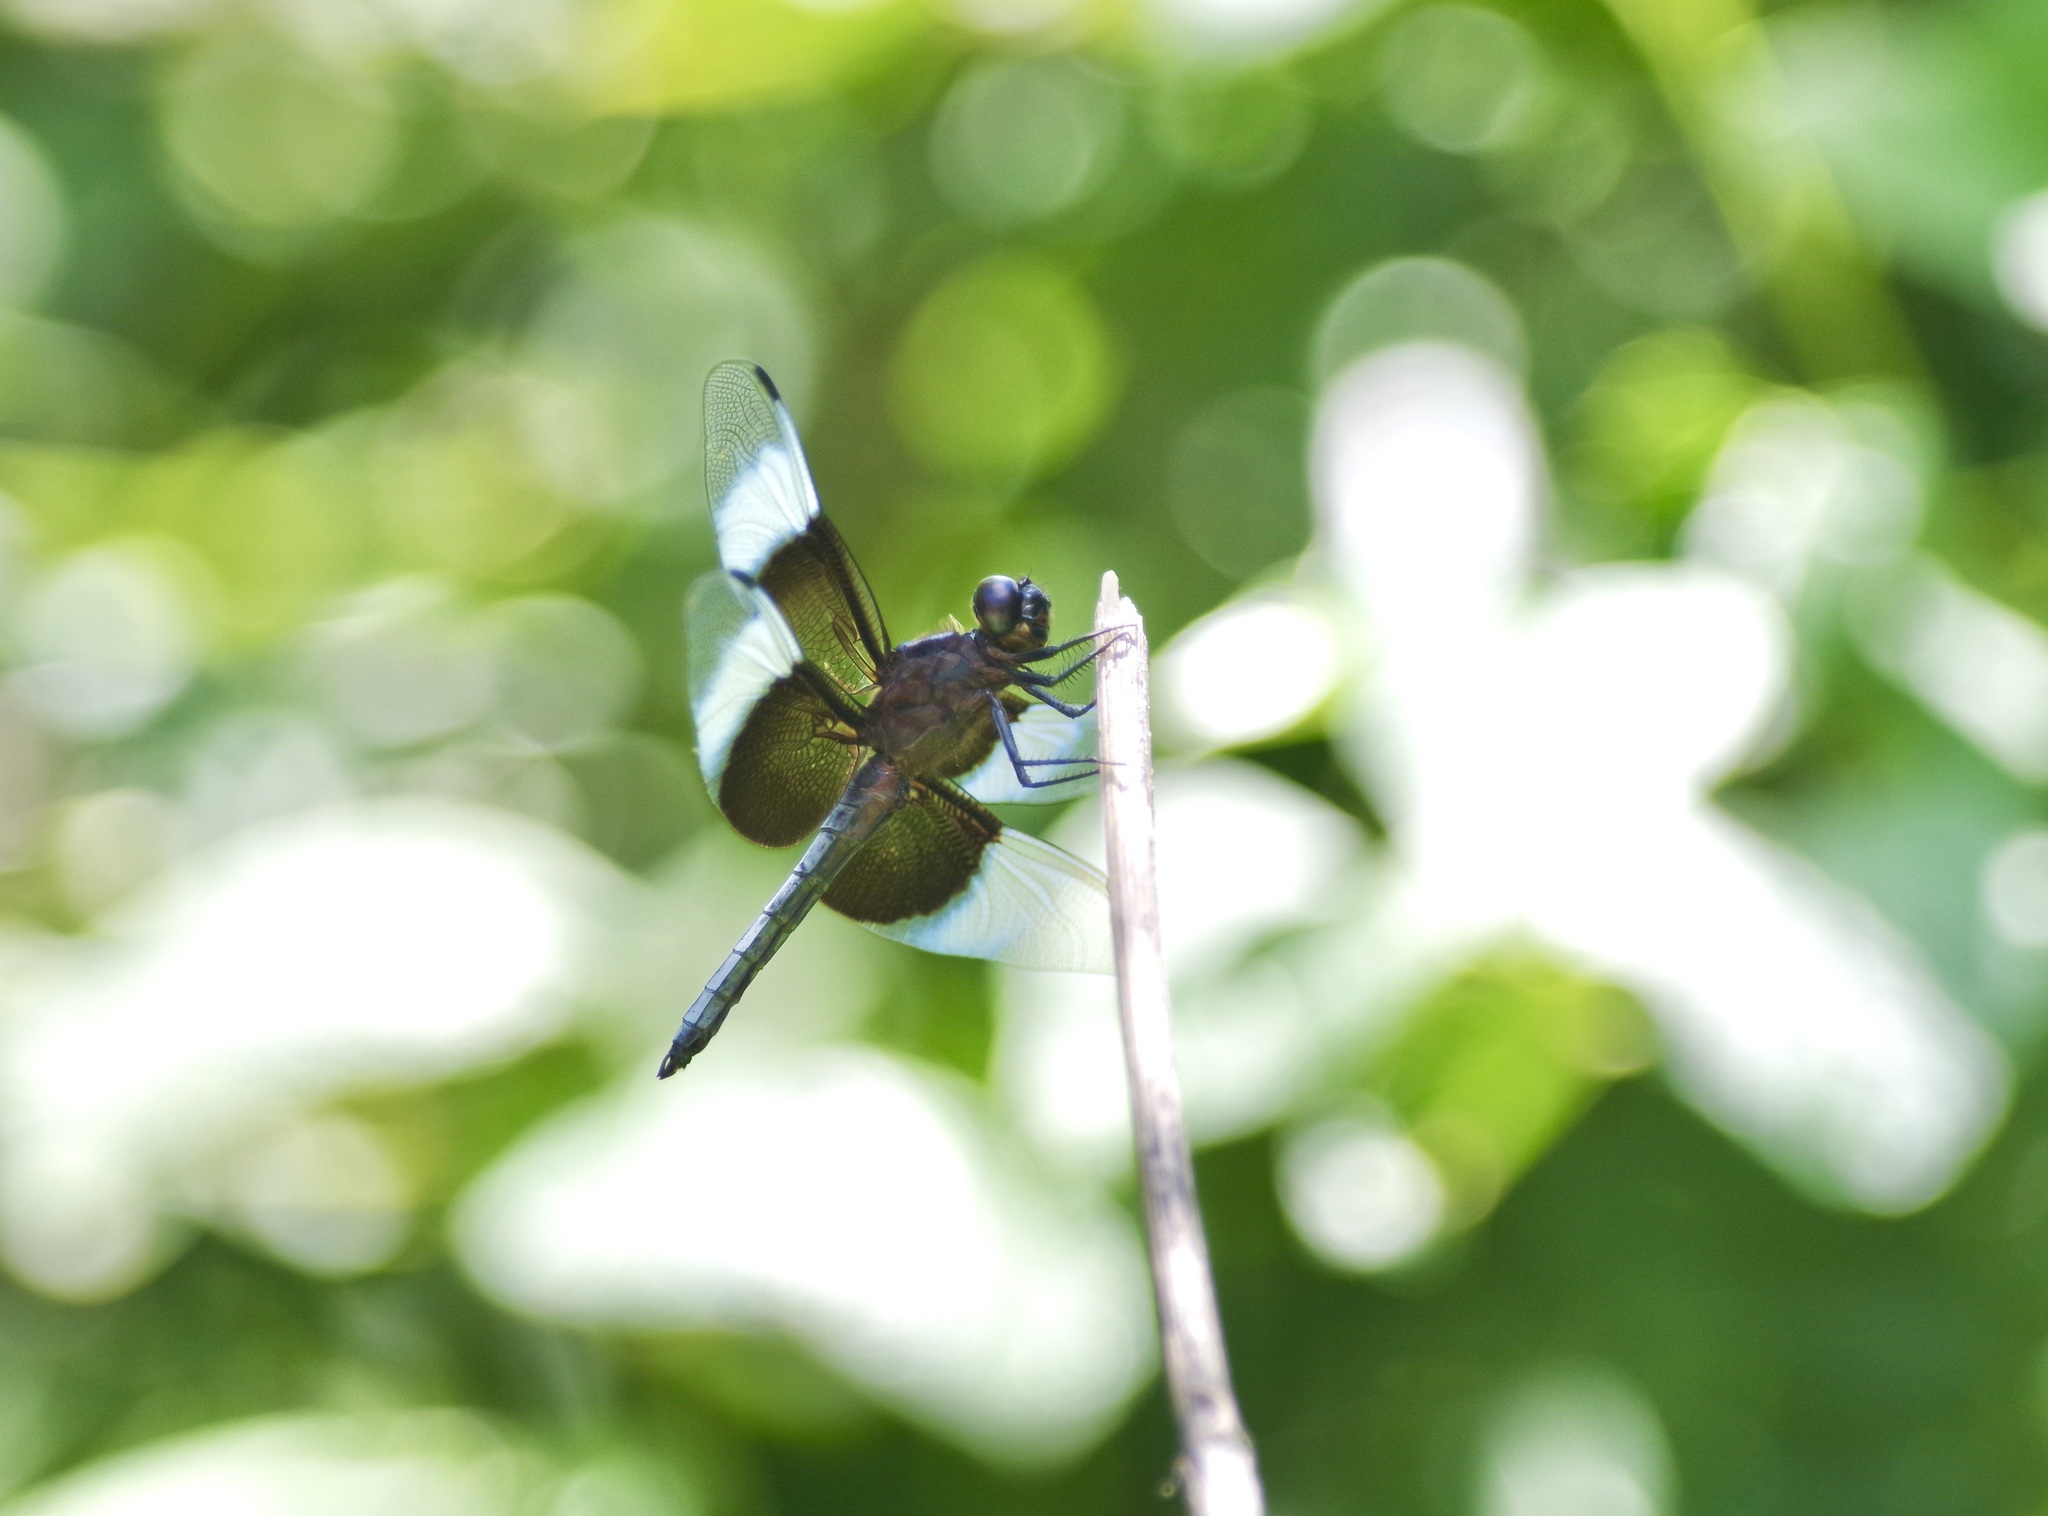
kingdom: Animalia
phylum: Arthropoda
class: Insecta
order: Odonata
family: Libellulidae
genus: Libellula
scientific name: Libellula luctuosa
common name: Widow skimmer
